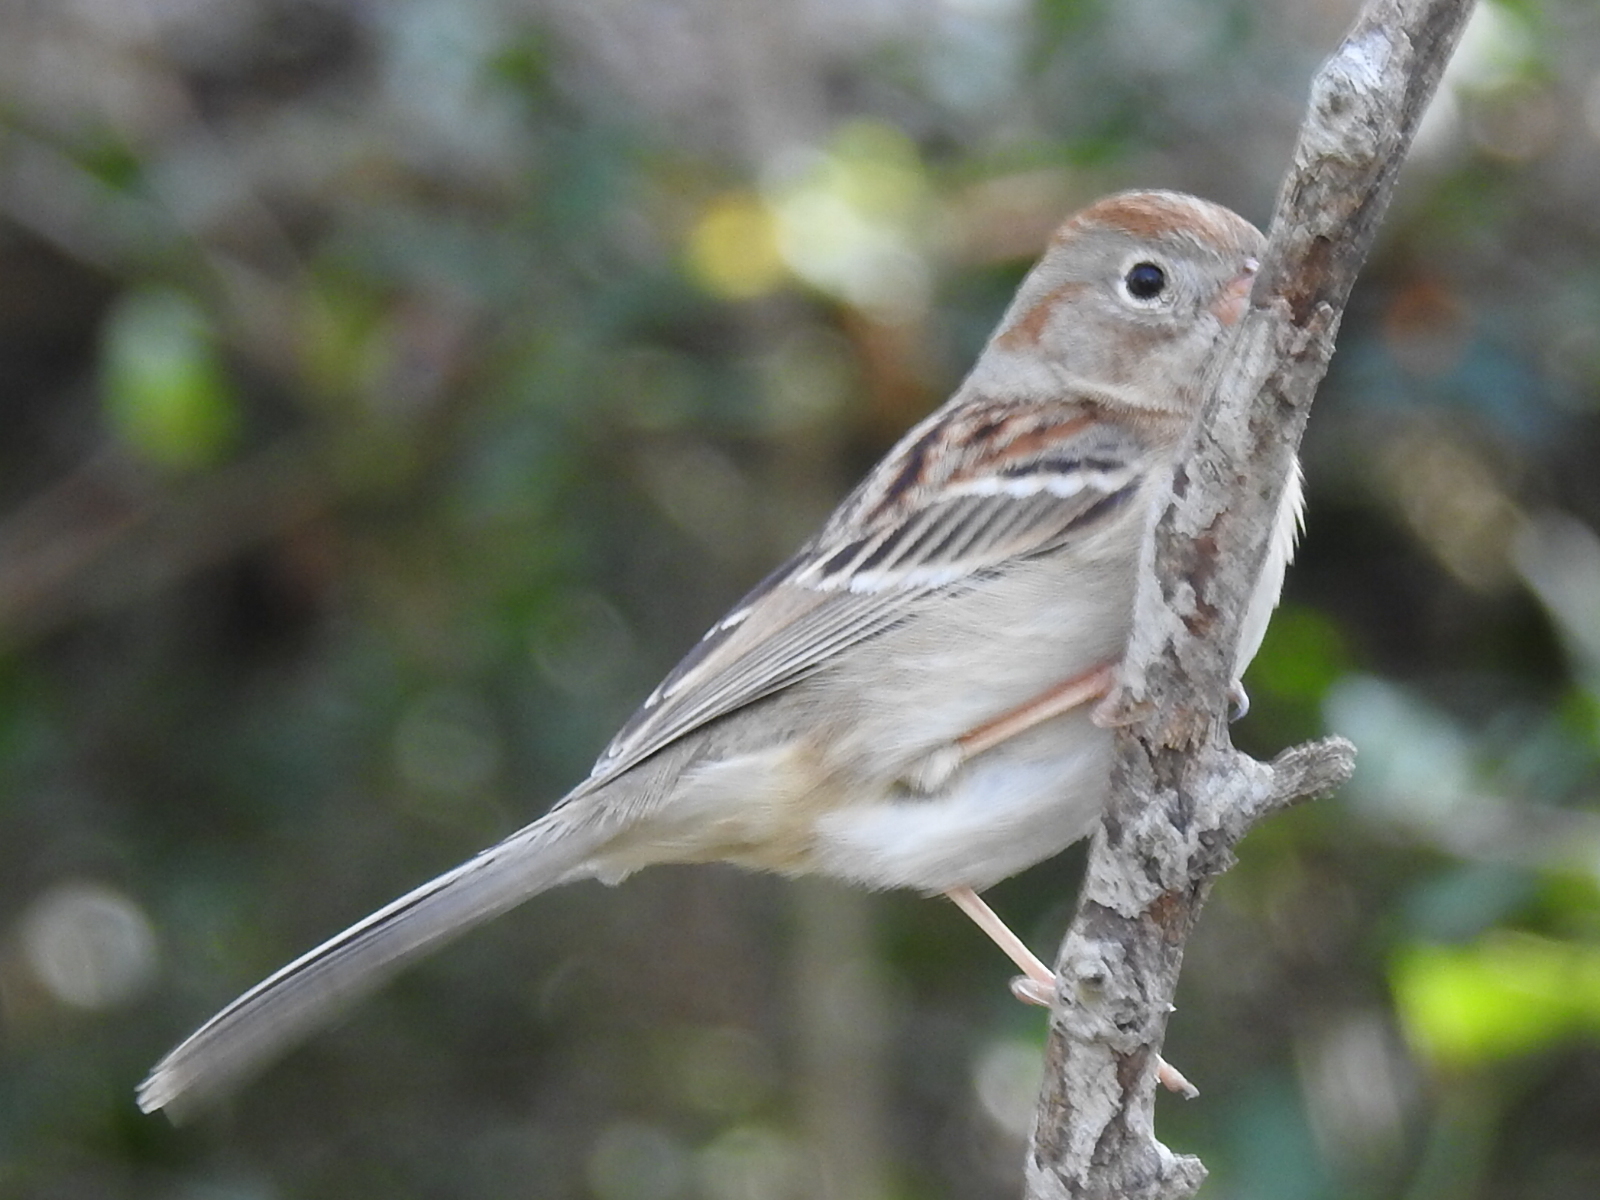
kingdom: Animalia
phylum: Chordata
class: Aves
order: Passeriformes
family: Passerellidae
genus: Spizella
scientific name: Spizella pusilla
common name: Field sparrow
